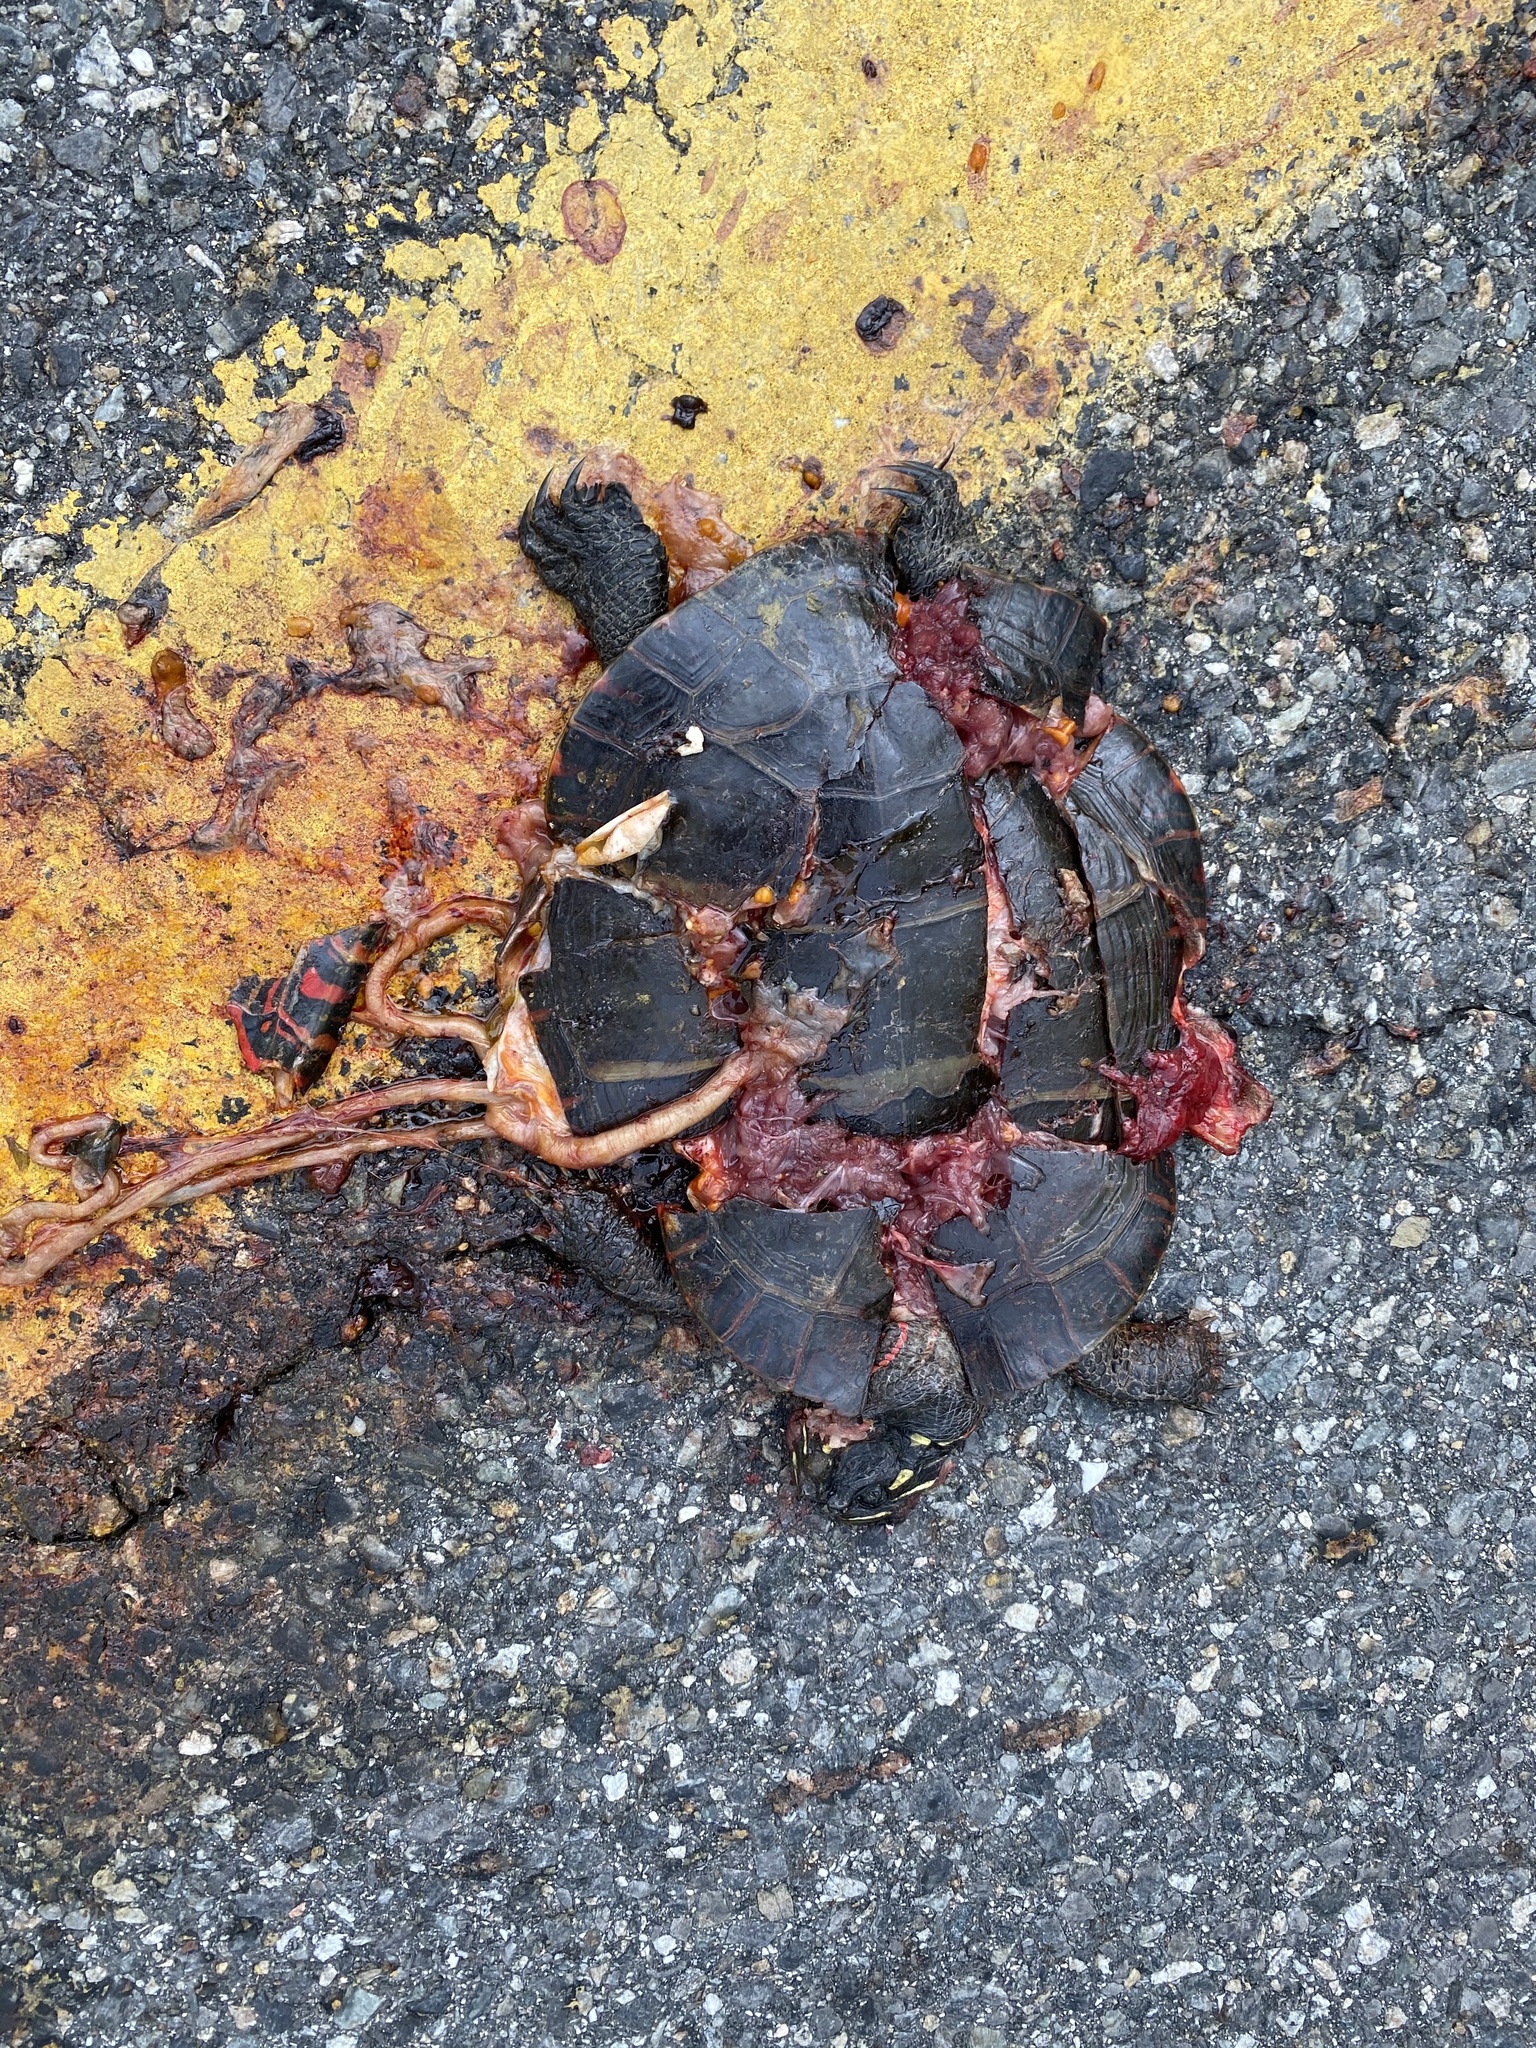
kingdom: Animalia
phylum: Chordata
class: Testudines
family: Emydidae
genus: Chrysemys
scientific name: Chrysemys picta
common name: Painted turtle
